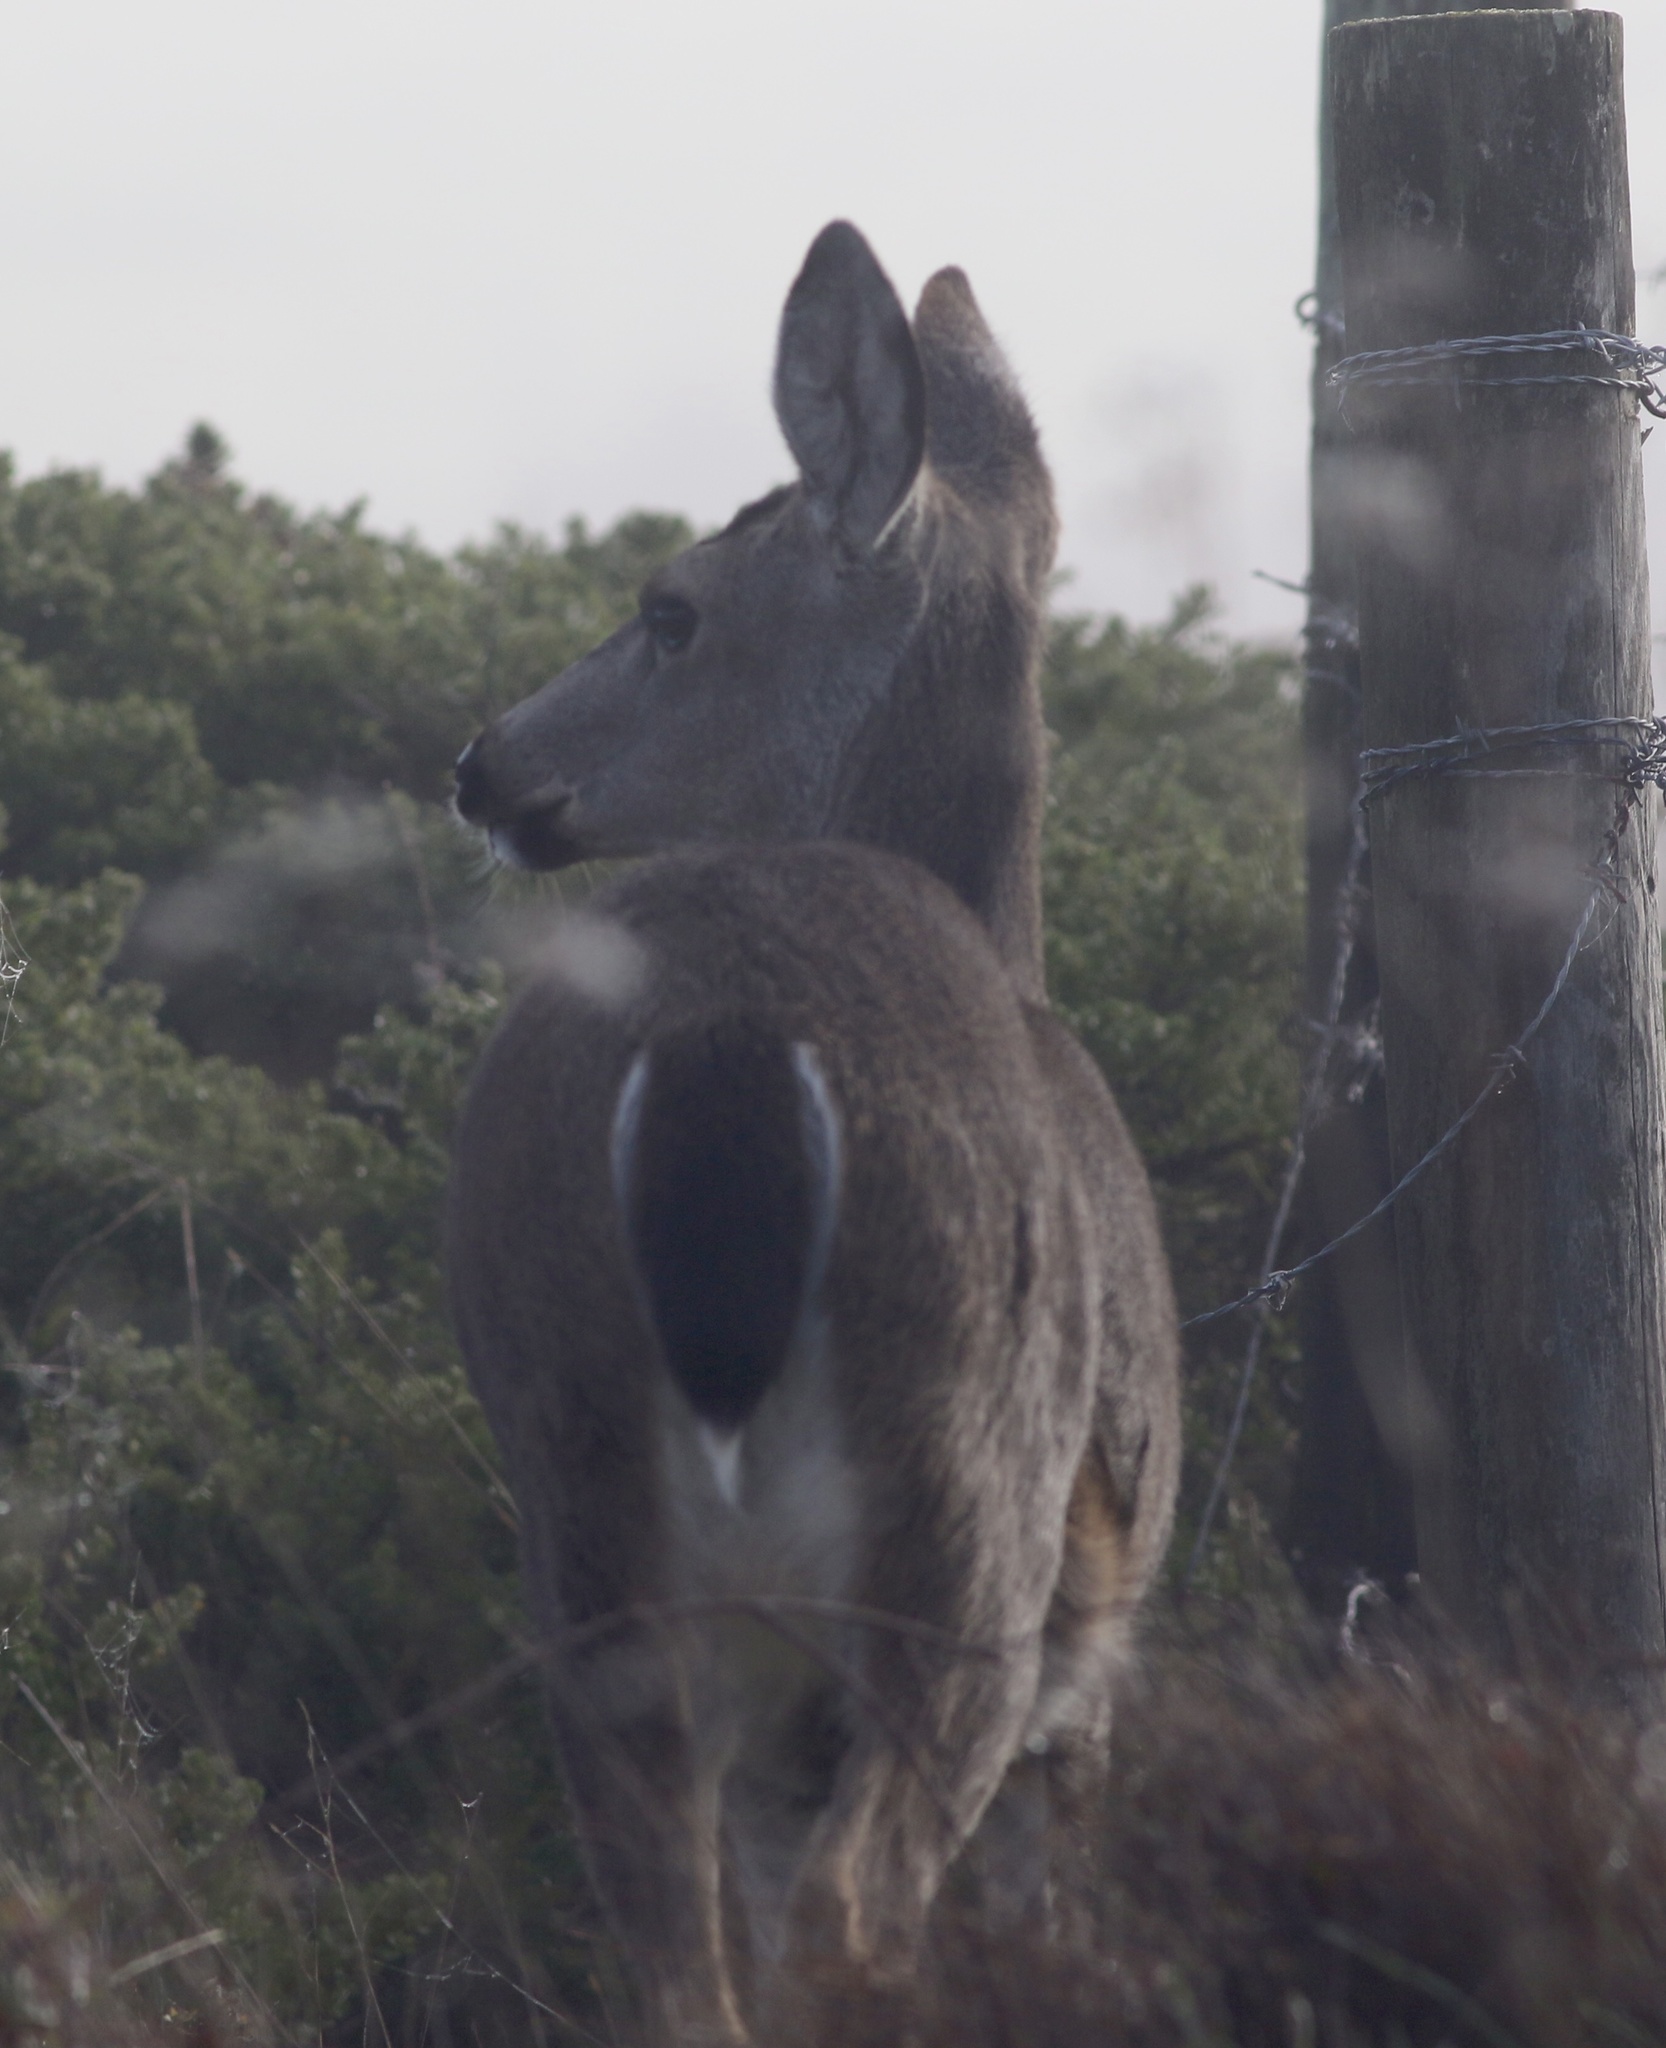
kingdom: Animalia
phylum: Chordata
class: Mammalia
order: Artiodactyla
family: Cervidae
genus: Odocoileus
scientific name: Odocoileus hemionus
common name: Mule deer
